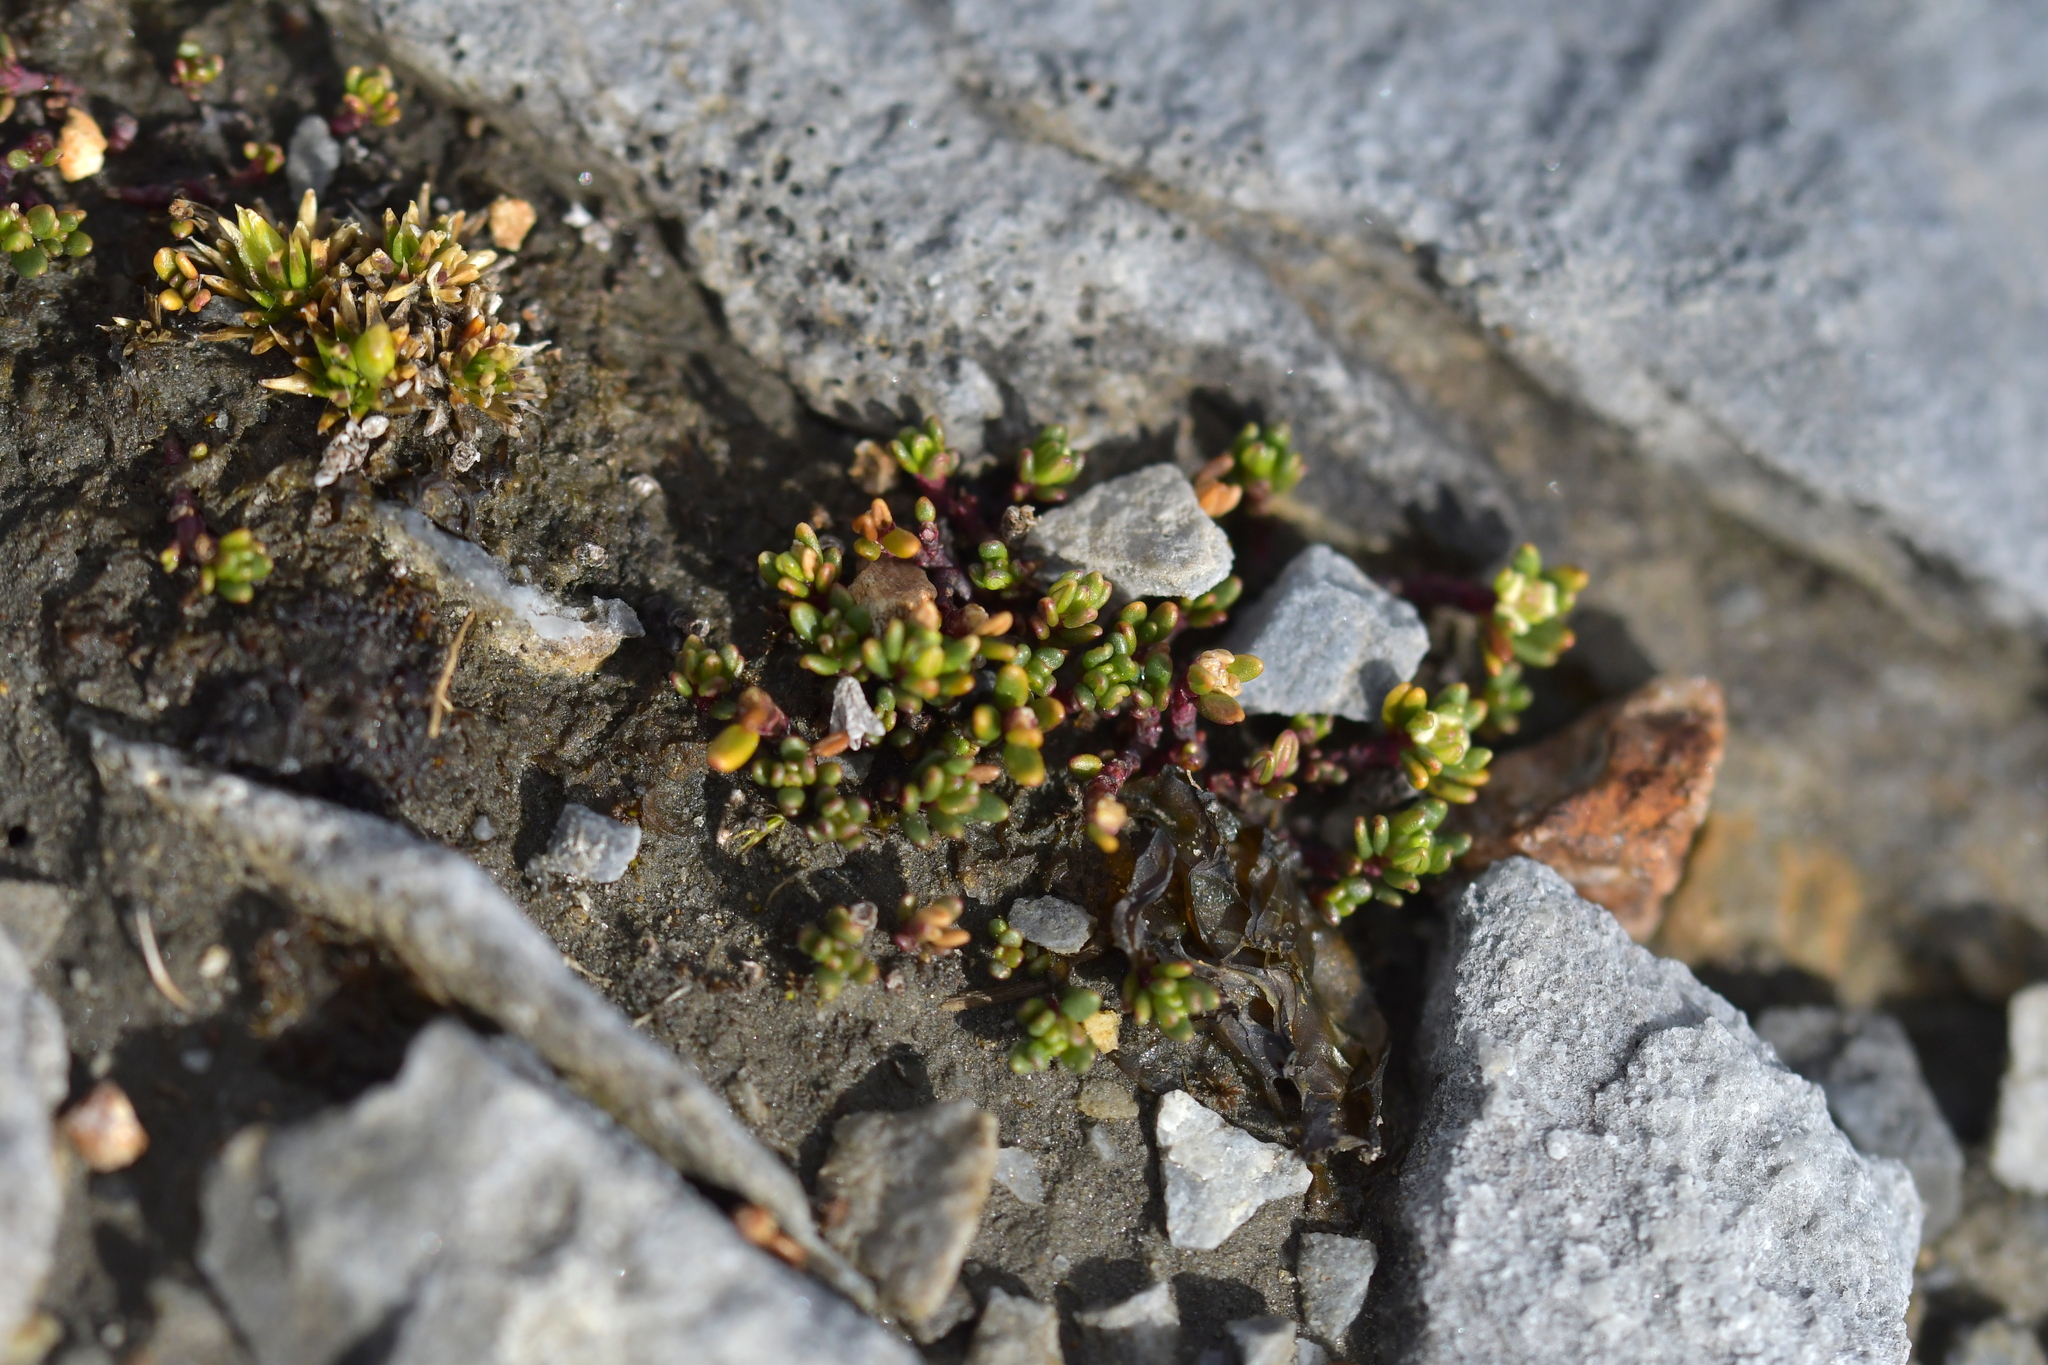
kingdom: Plantae
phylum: Tracheophyta
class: Magnoliopsida
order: Malpighiales
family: Phyllanthaceae
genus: Poranthera
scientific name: Poranthera alpina
